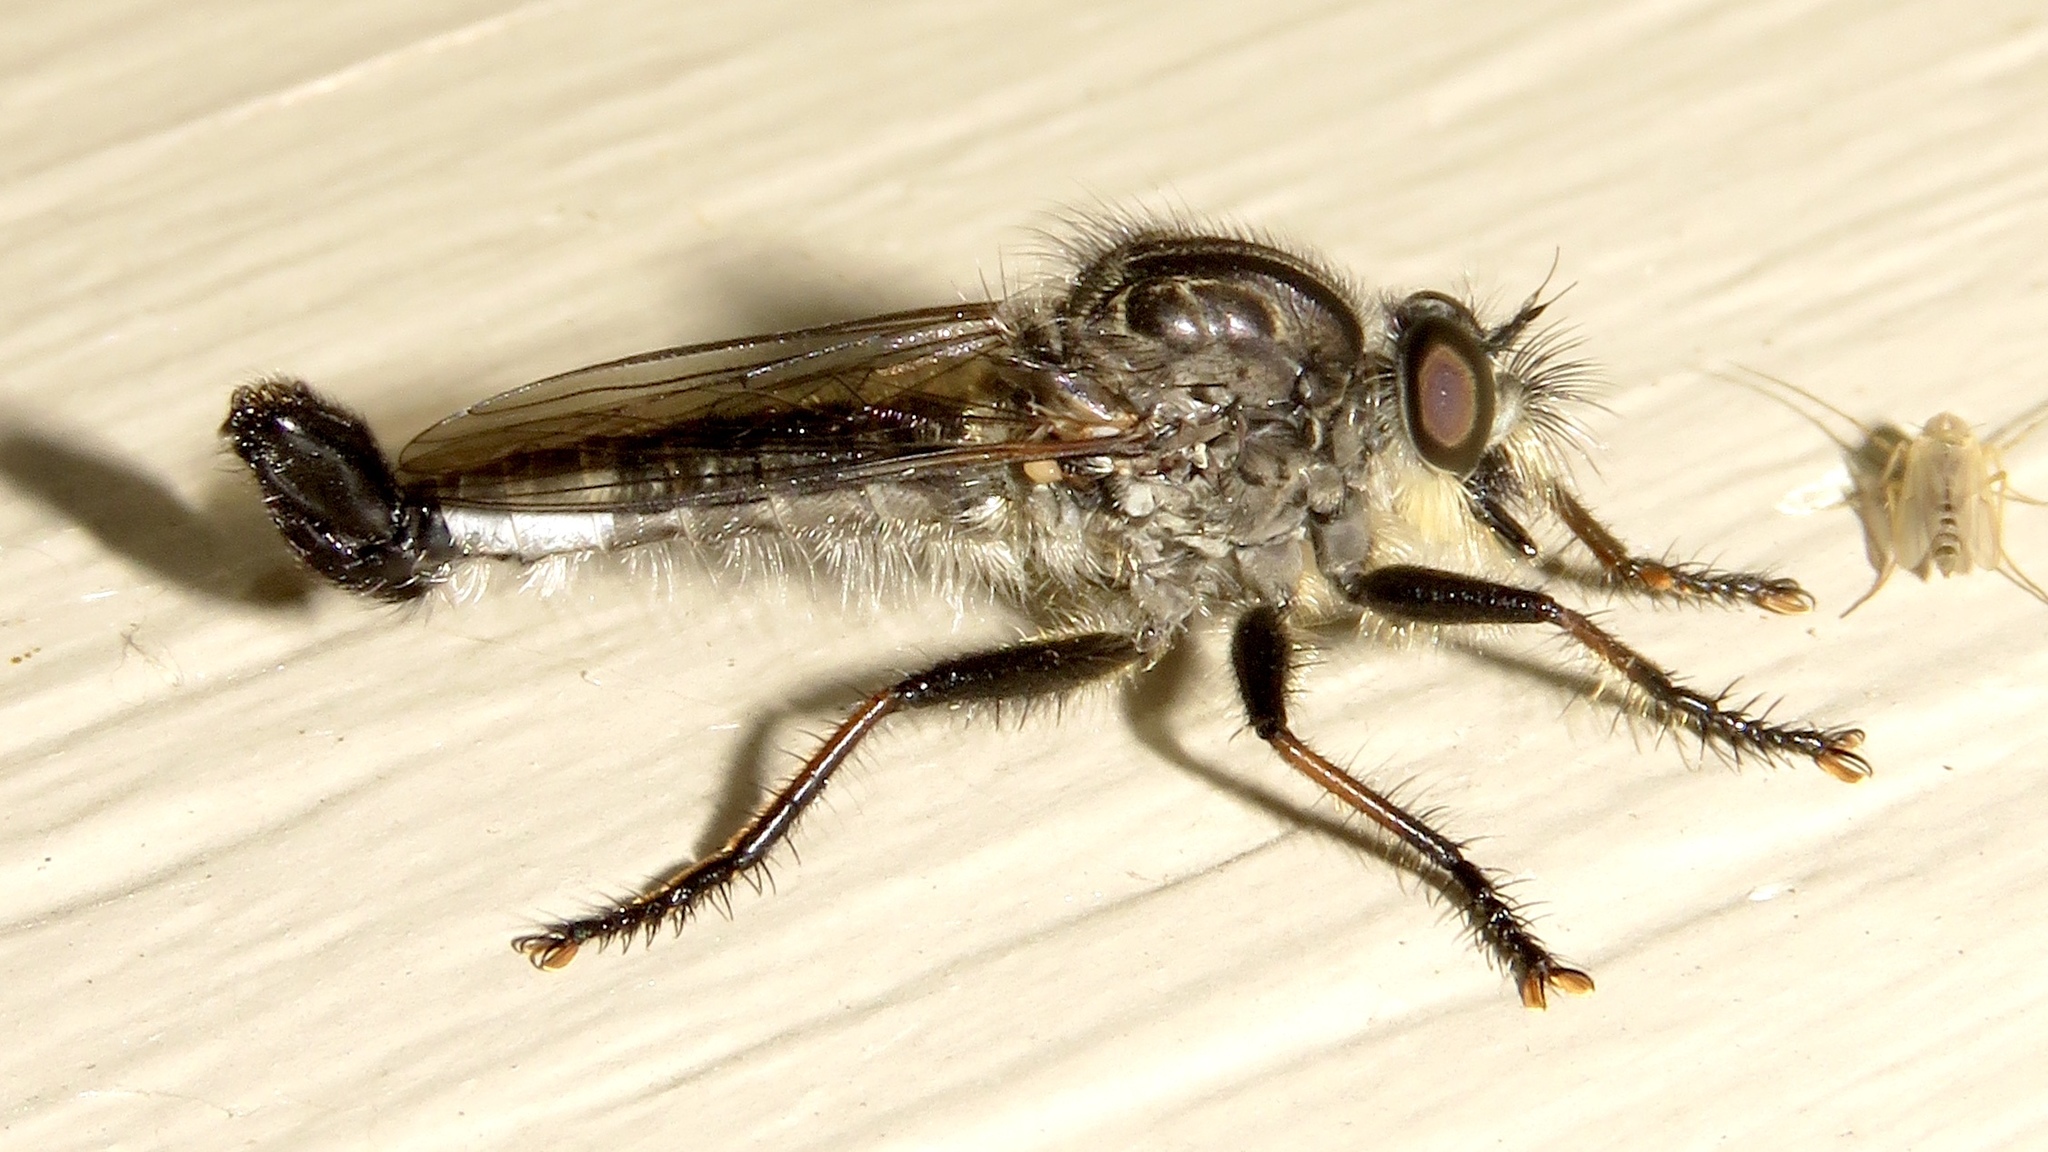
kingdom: Animalia
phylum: Arthropoda
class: Insecta
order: Diptera
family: Asilidae
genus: Efferia
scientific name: Efferia aestuans
